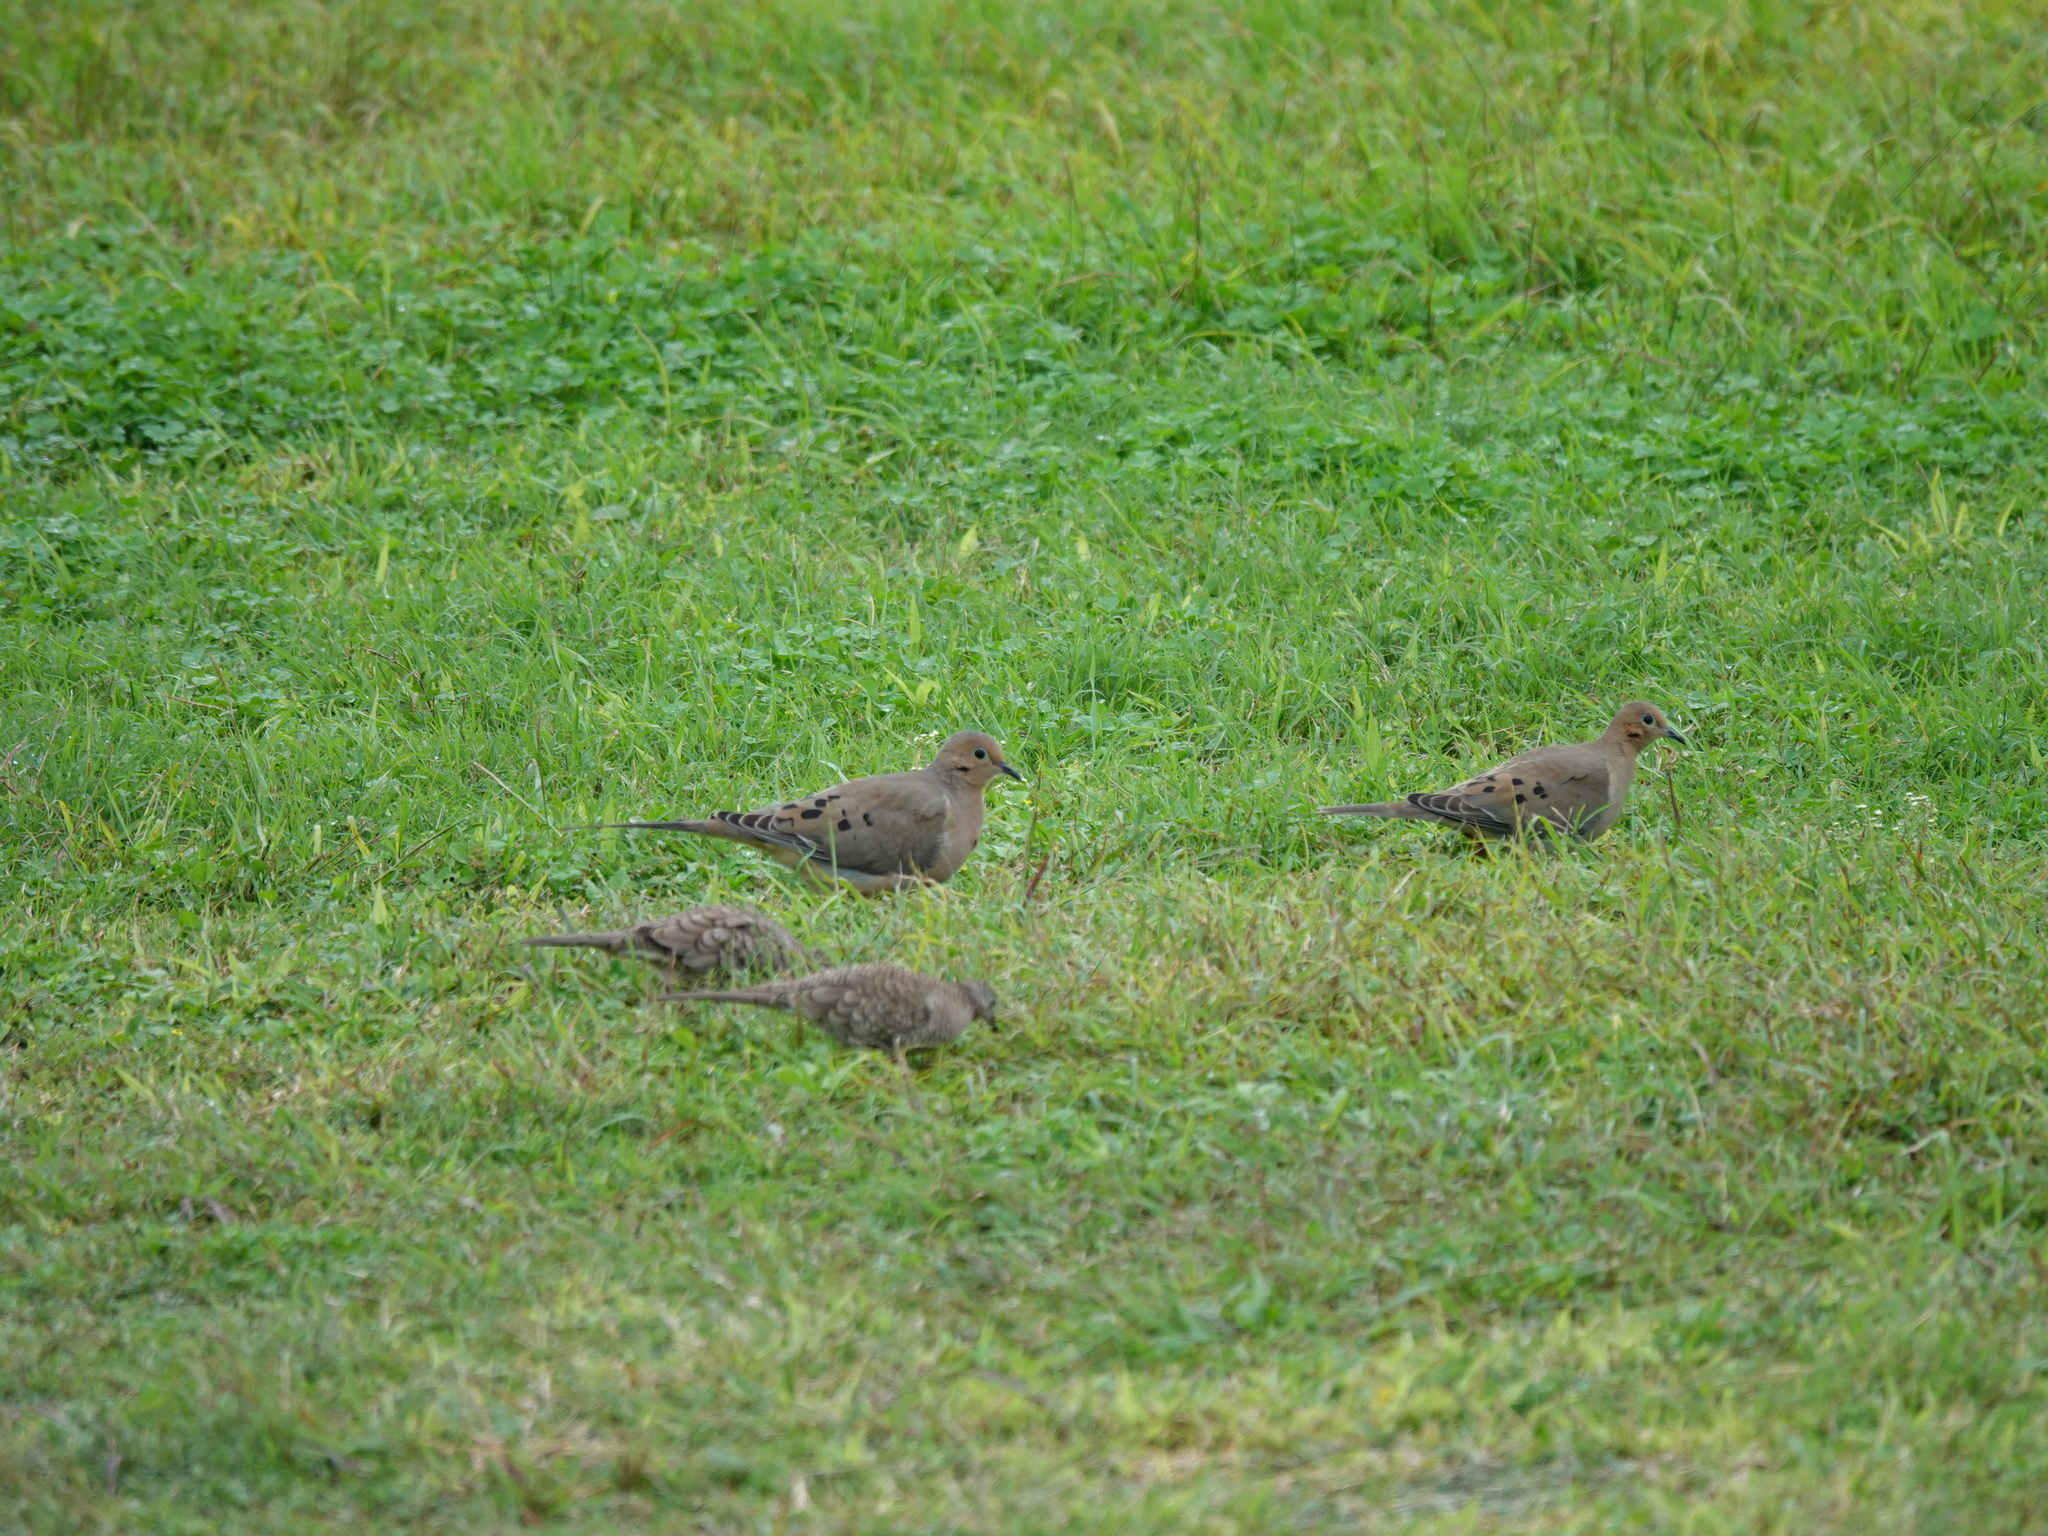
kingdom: Animalia
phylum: Chordata
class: Aves
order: Columbiformes
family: Columbidae
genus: Zenaida
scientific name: Zenaida macroura
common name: Mourning dove
